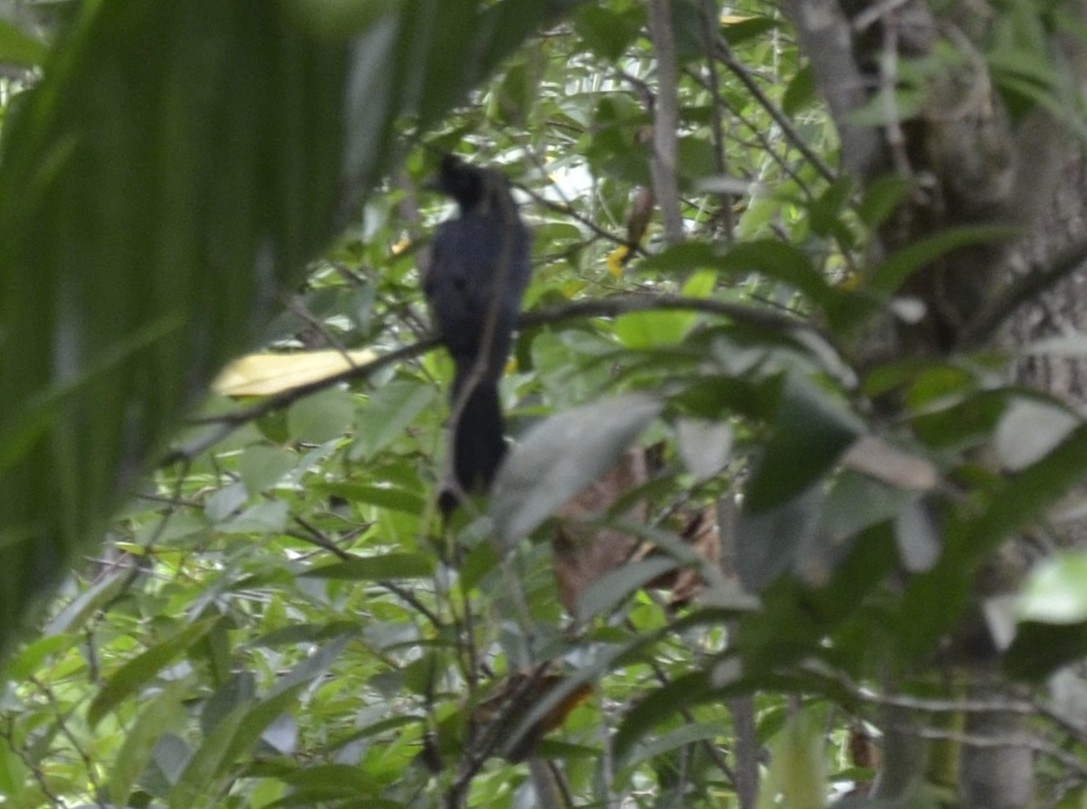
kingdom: Animalia
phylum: Chordata
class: Aves
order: Passeriformes
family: Dicruridae
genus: Dicrurus
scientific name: Dicrurus paradiseus
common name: Greater racket-tailed drongo
